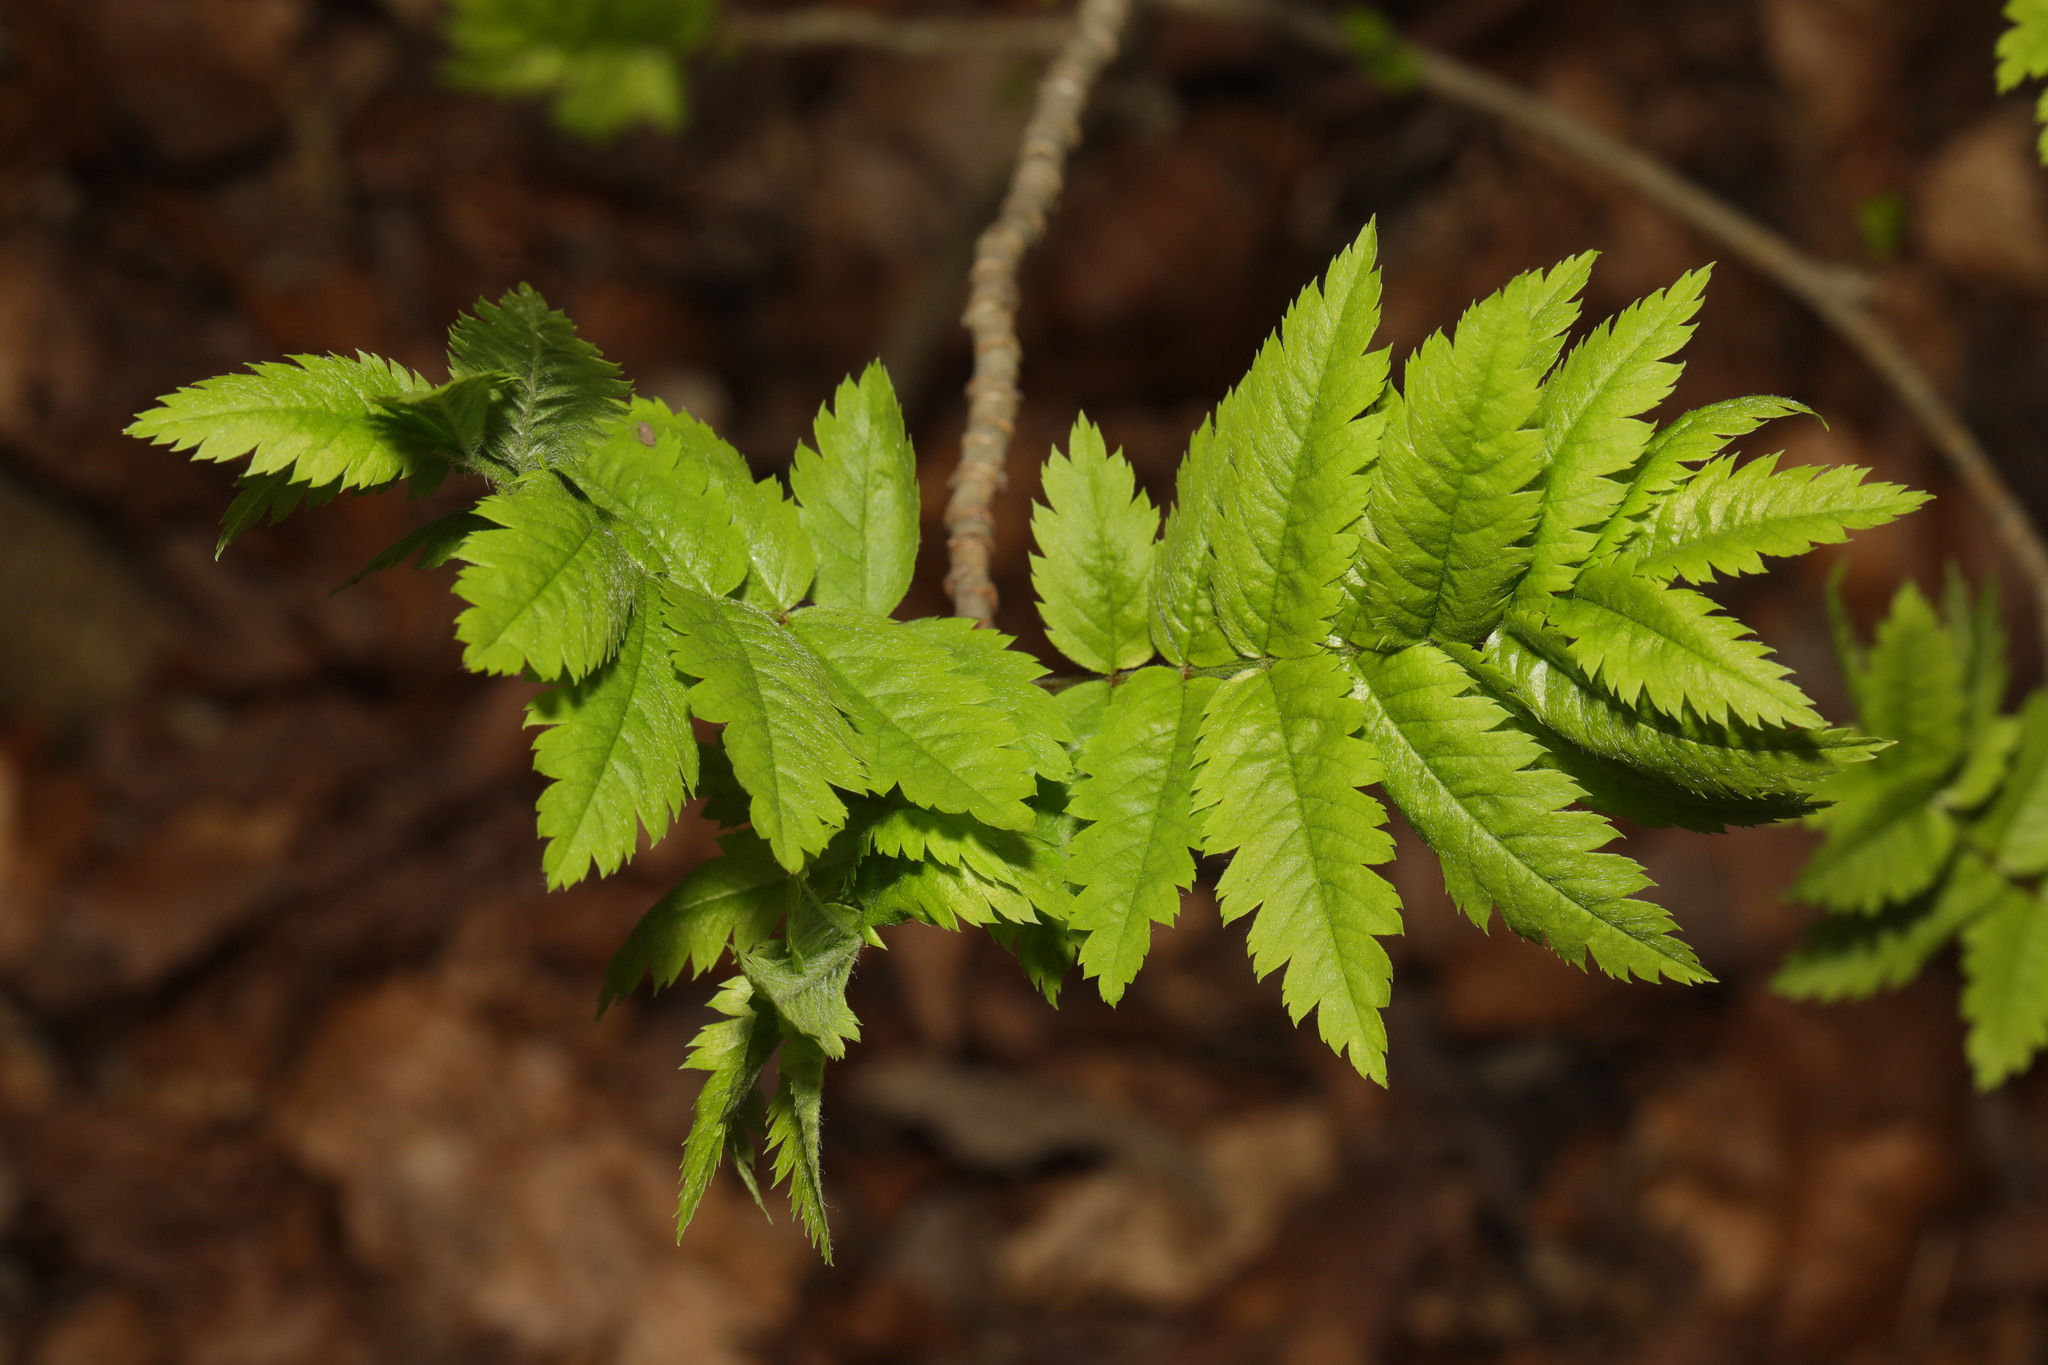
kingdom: Plantae
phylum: Tracheophyta
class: Magnoliopsida
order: Rosales
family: Rosaceae
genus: Sorbus
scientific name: Sorbus aucuparia
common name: Rowan
